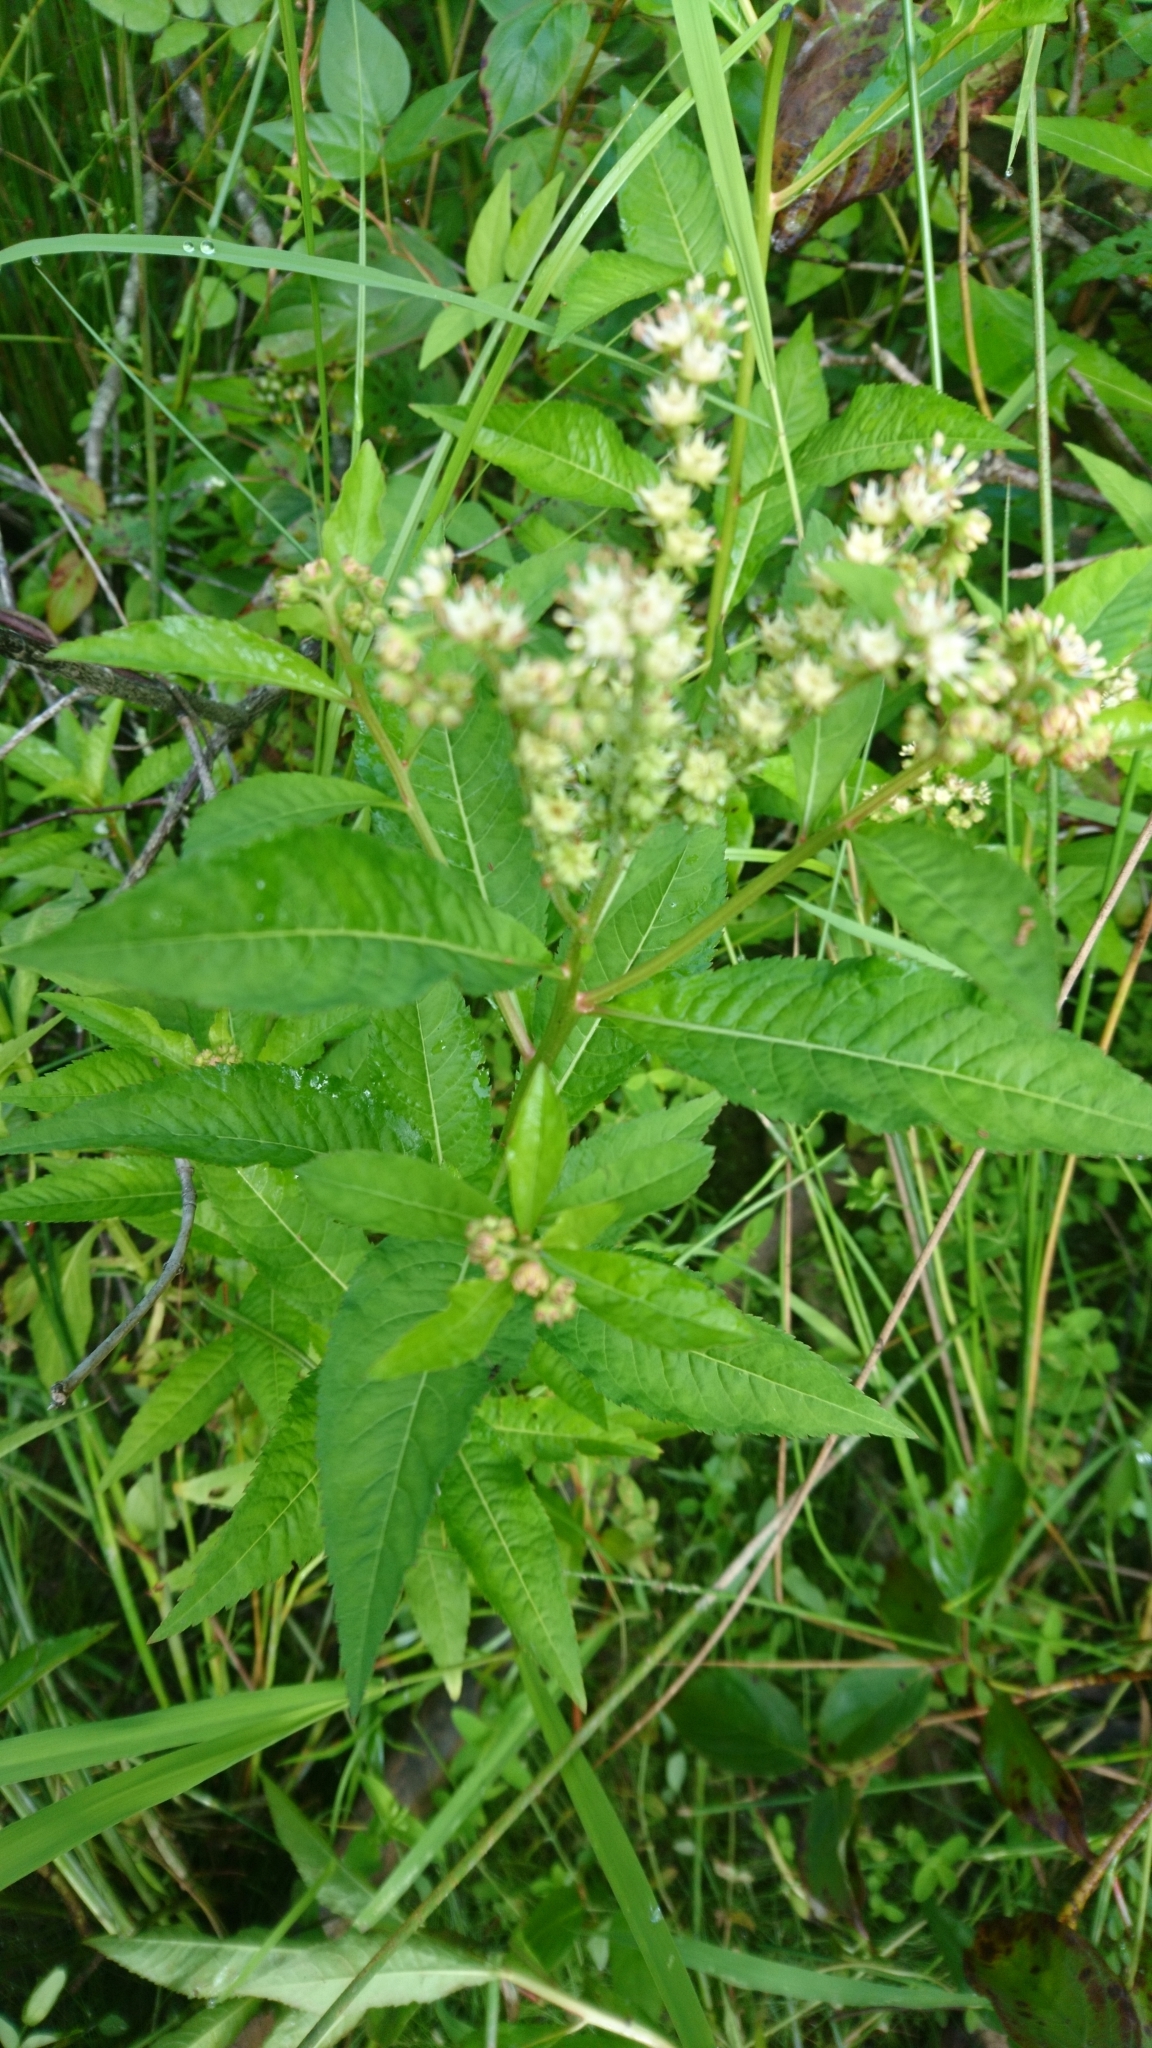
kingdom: Plantae
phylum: Tracheophyta
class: Magnoliopsida
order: Saxifragales
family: Penthoraceae
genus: Penthorum
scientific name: Penthorum sedoides
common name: Ditch stonecrop
